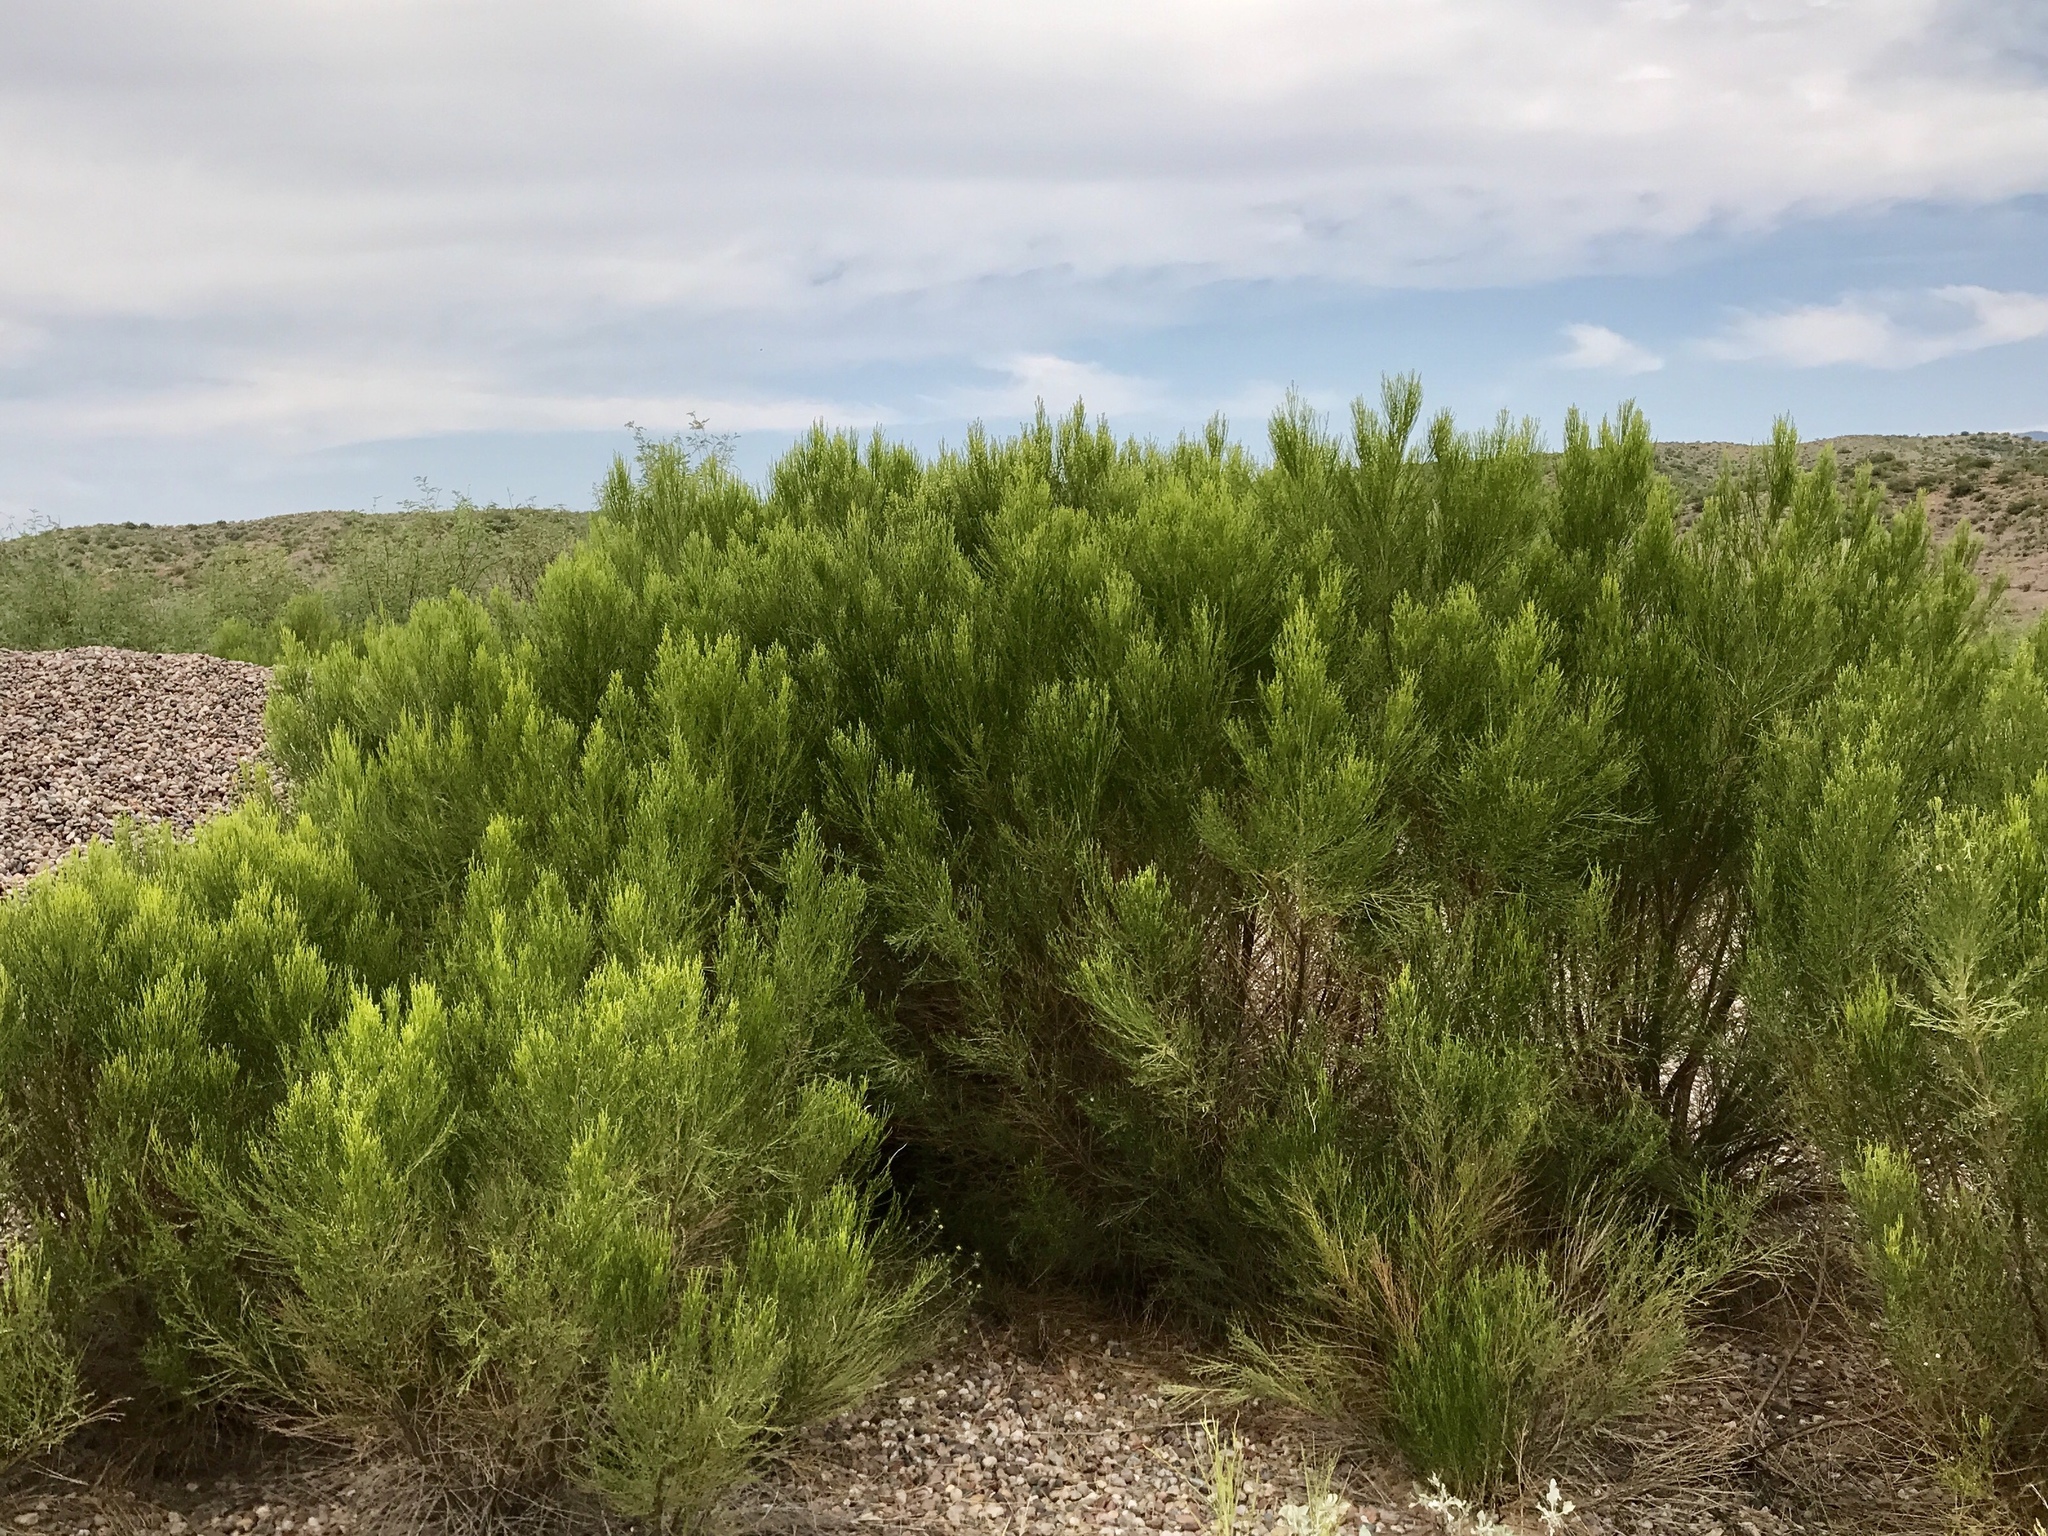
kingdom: Plantae
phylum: Tracheophyta
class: Magnoliopsida
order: Asterales
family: Asteraceae
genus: Baccharis
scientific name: Baccharis sarothroides
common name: Desert-broom
